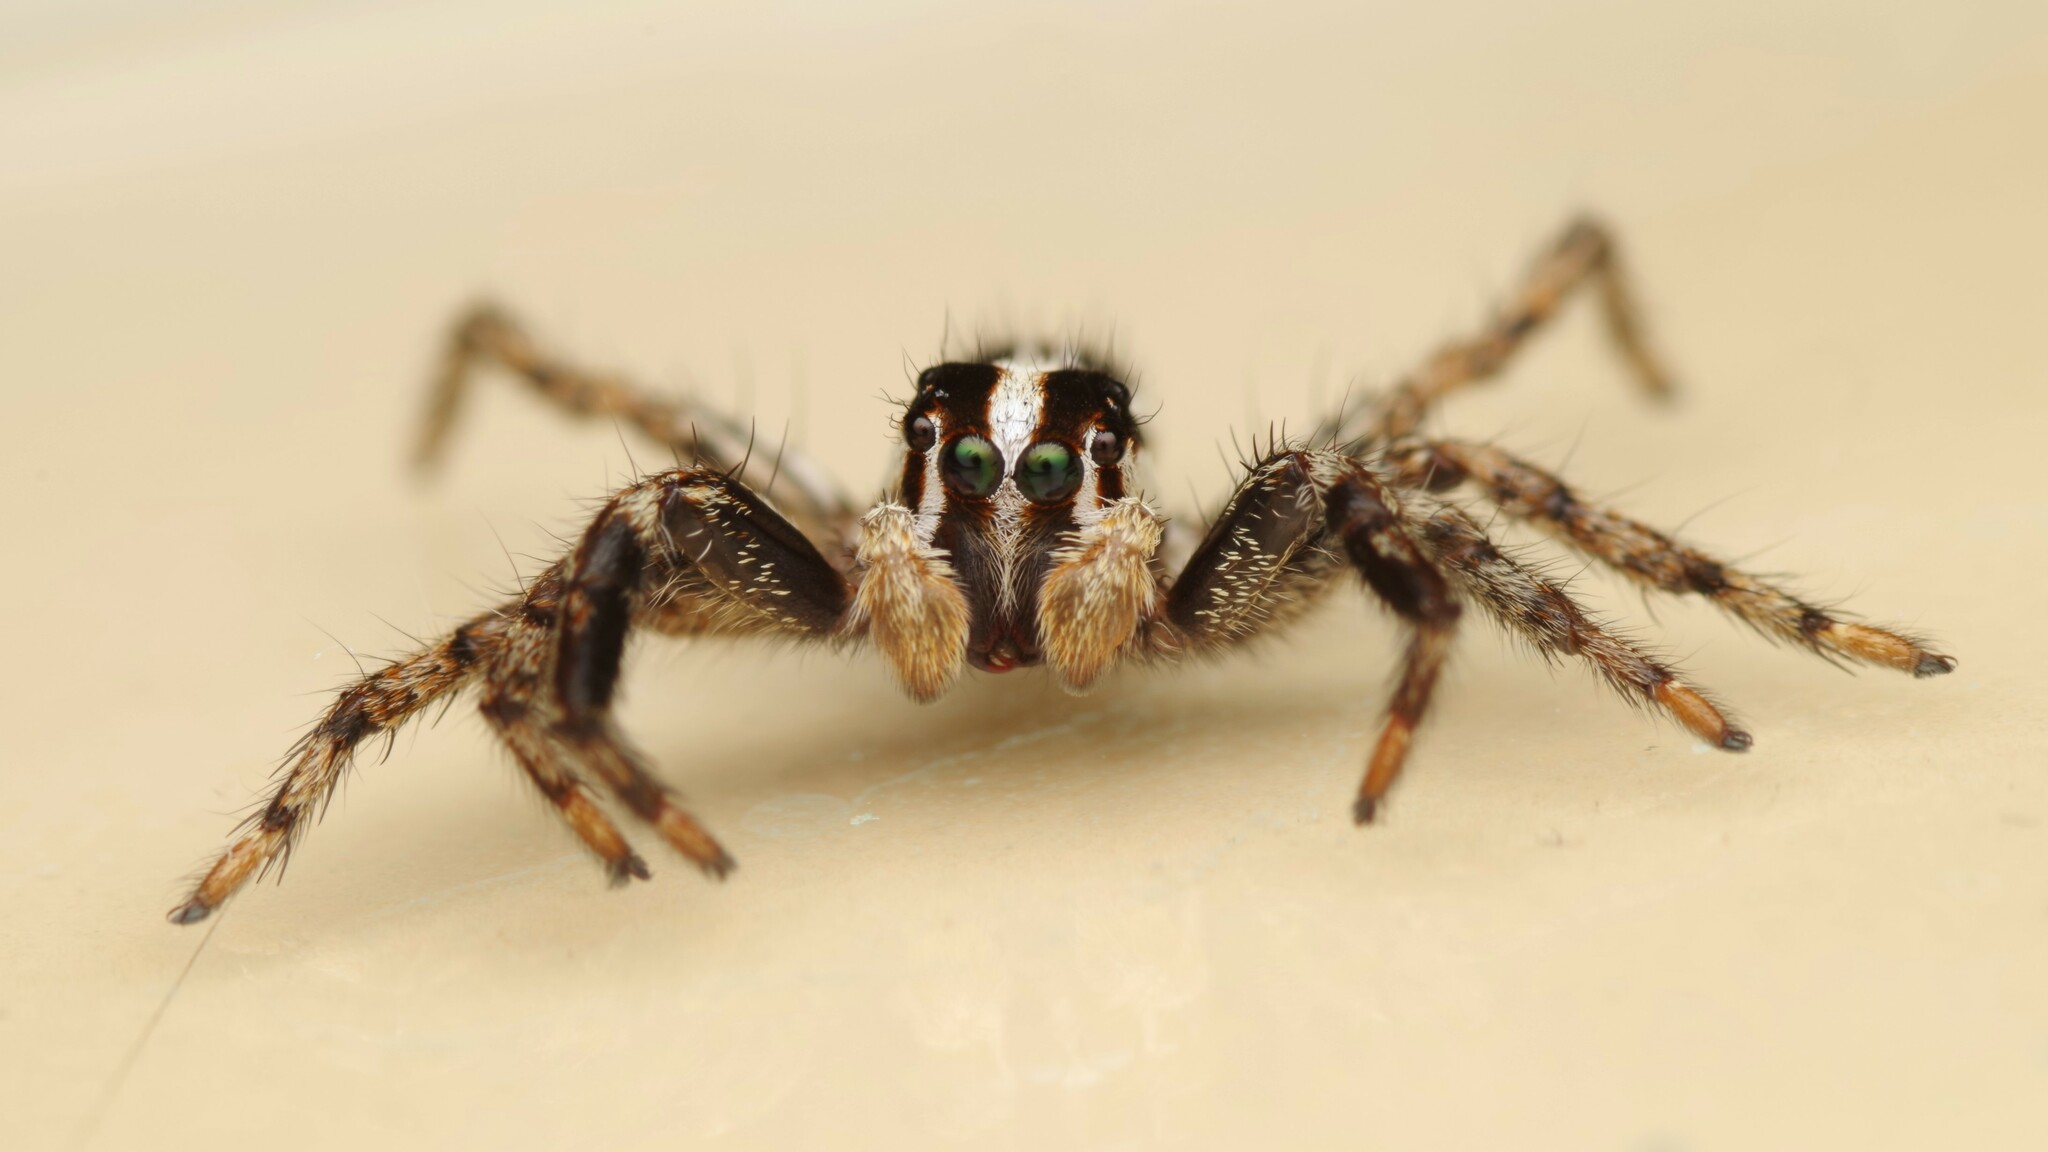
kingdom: Animalia
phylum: Arthropoda
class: Arachnida
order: Araneae
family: Salticidae
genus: Plexippus
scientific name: Plexippus paykulli
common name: Pantropical jumper
